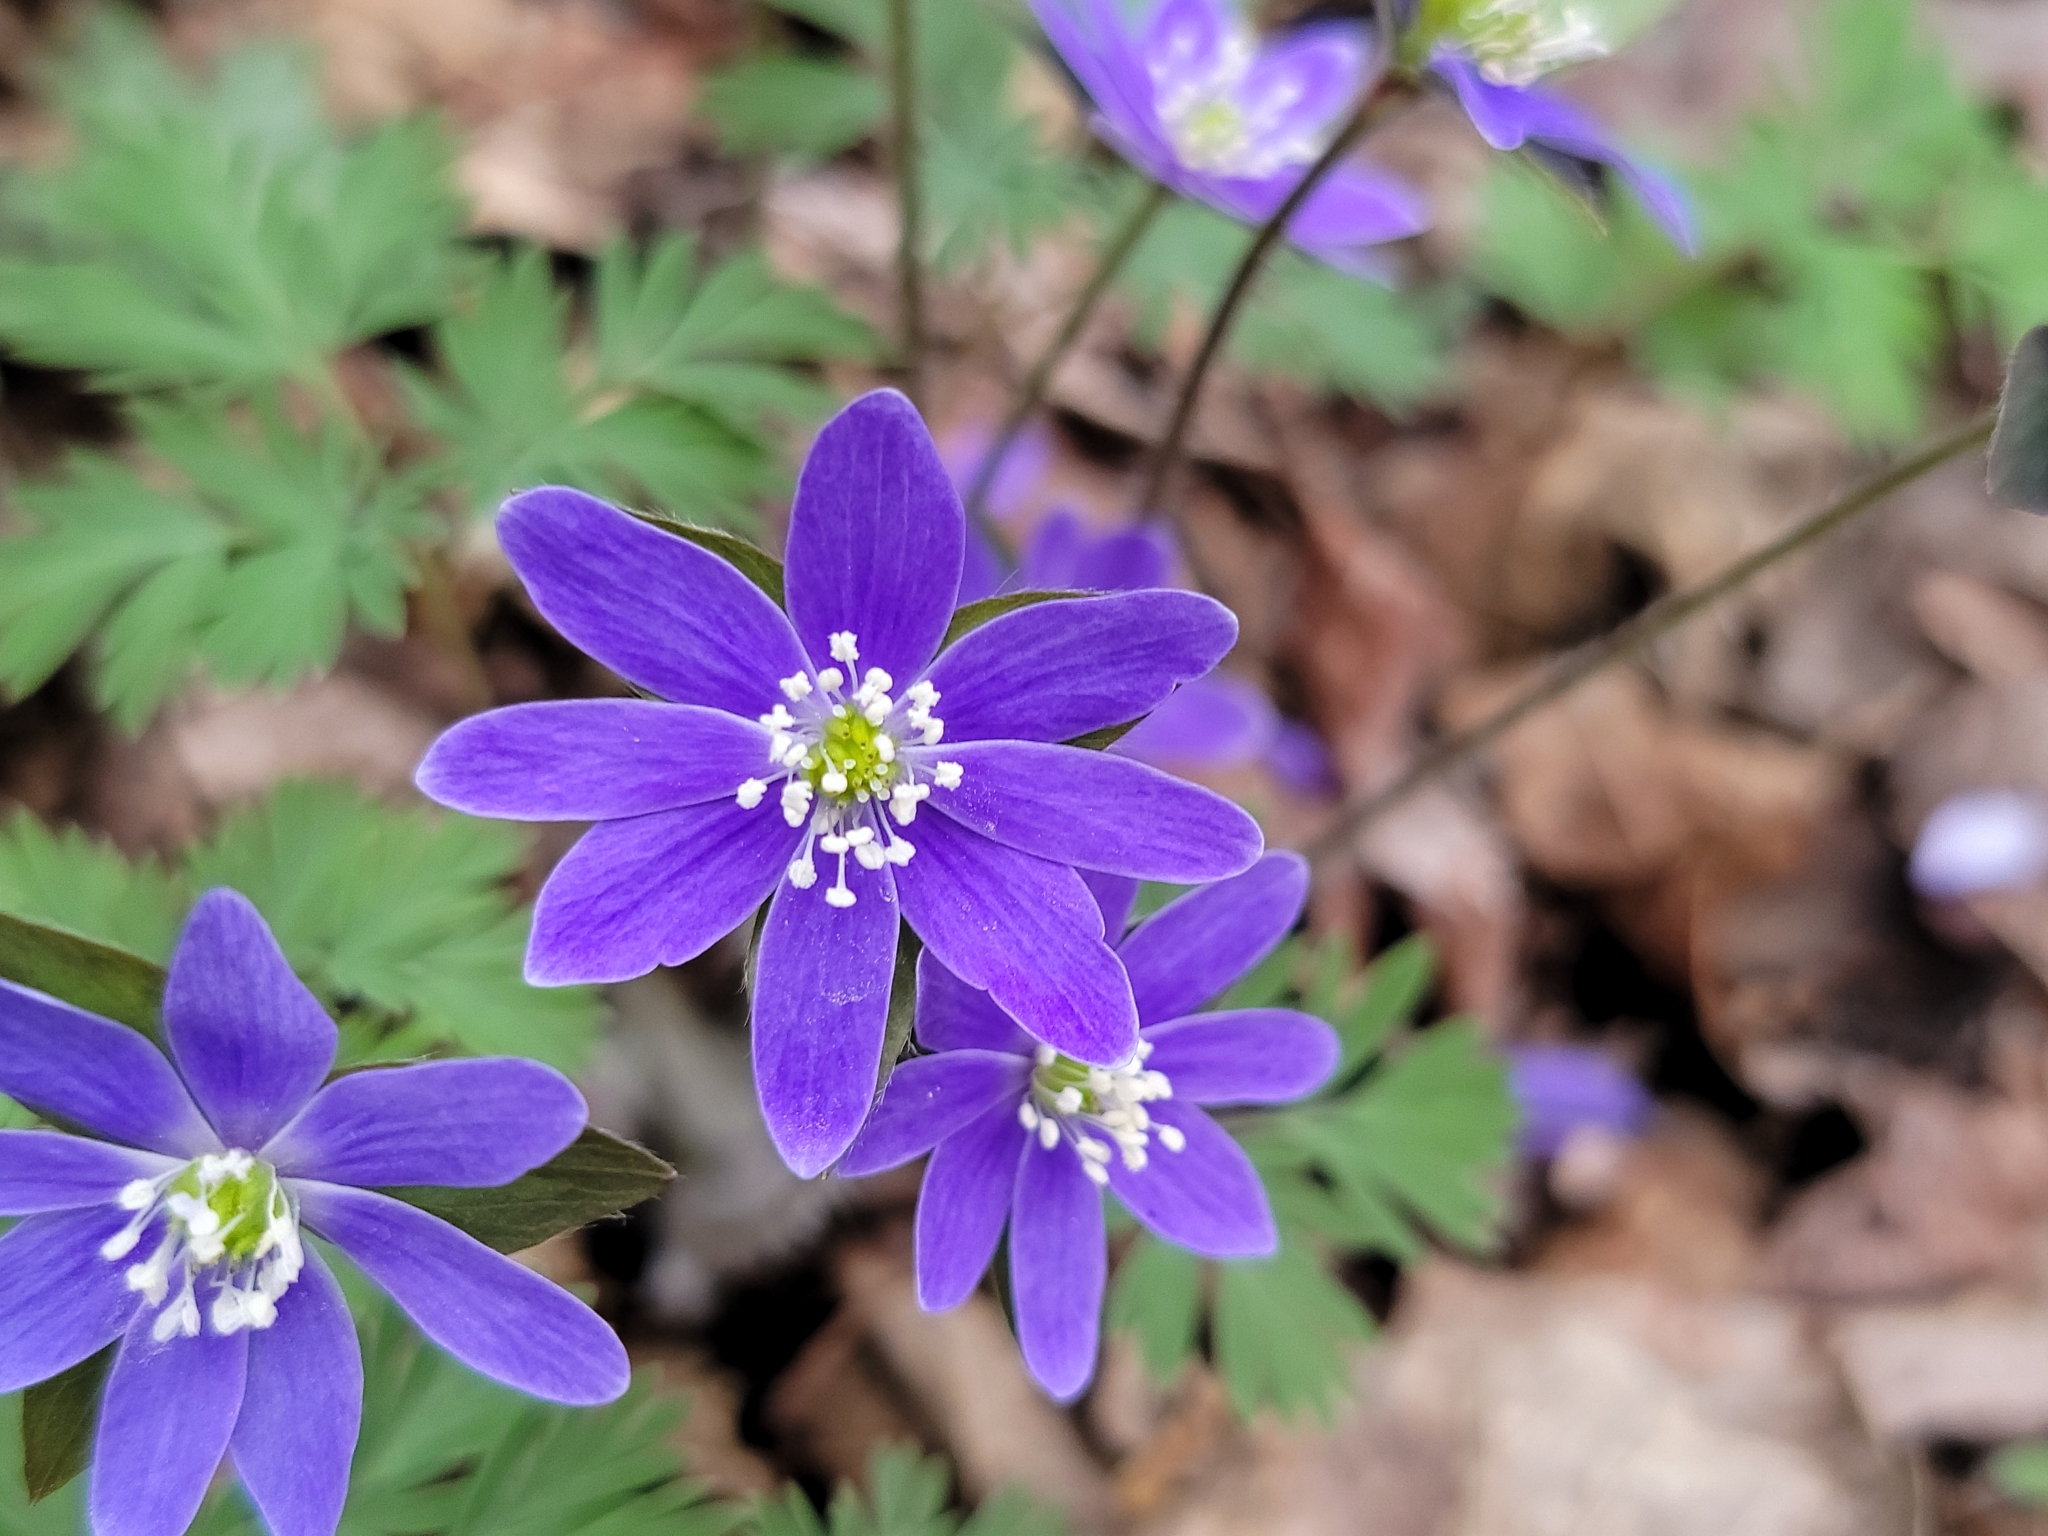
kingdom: Plantae
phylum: Tracheophyta
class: Magnoliopsida
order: Ranunculales
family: Ranunculaceae
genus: Hepatica
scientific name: Hepatica acutiloba
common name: Sharp-lobed hepatica
